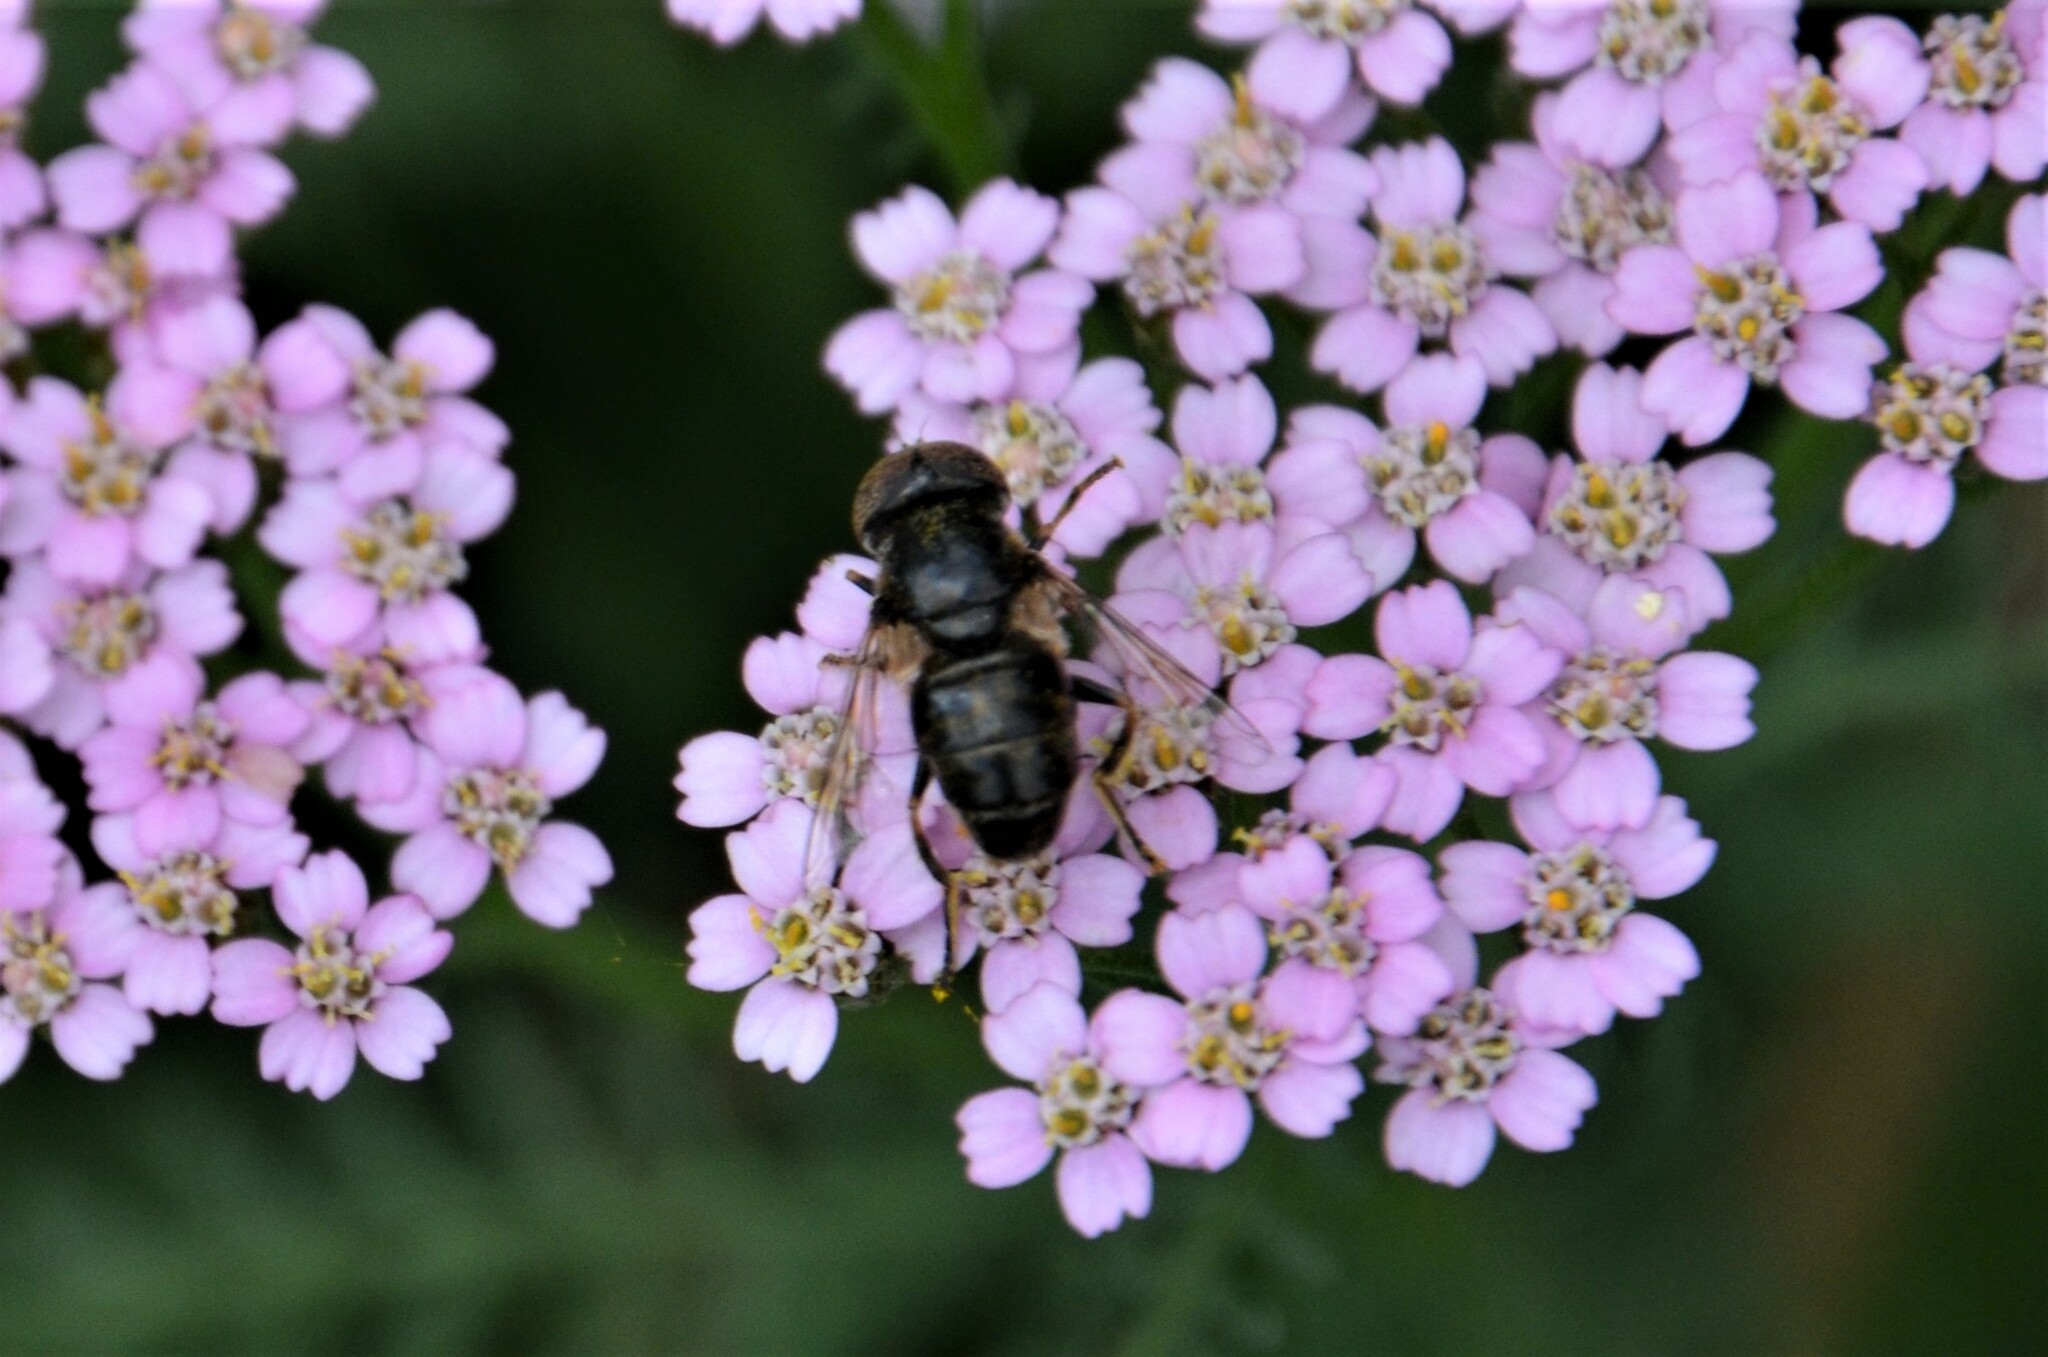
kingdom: Animalia
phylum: Arthropoda
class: Insecta
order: Diptera
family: Syrphidae
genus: Eristalinus
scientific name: Eristalinus aeneus
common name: Syrphid fly
